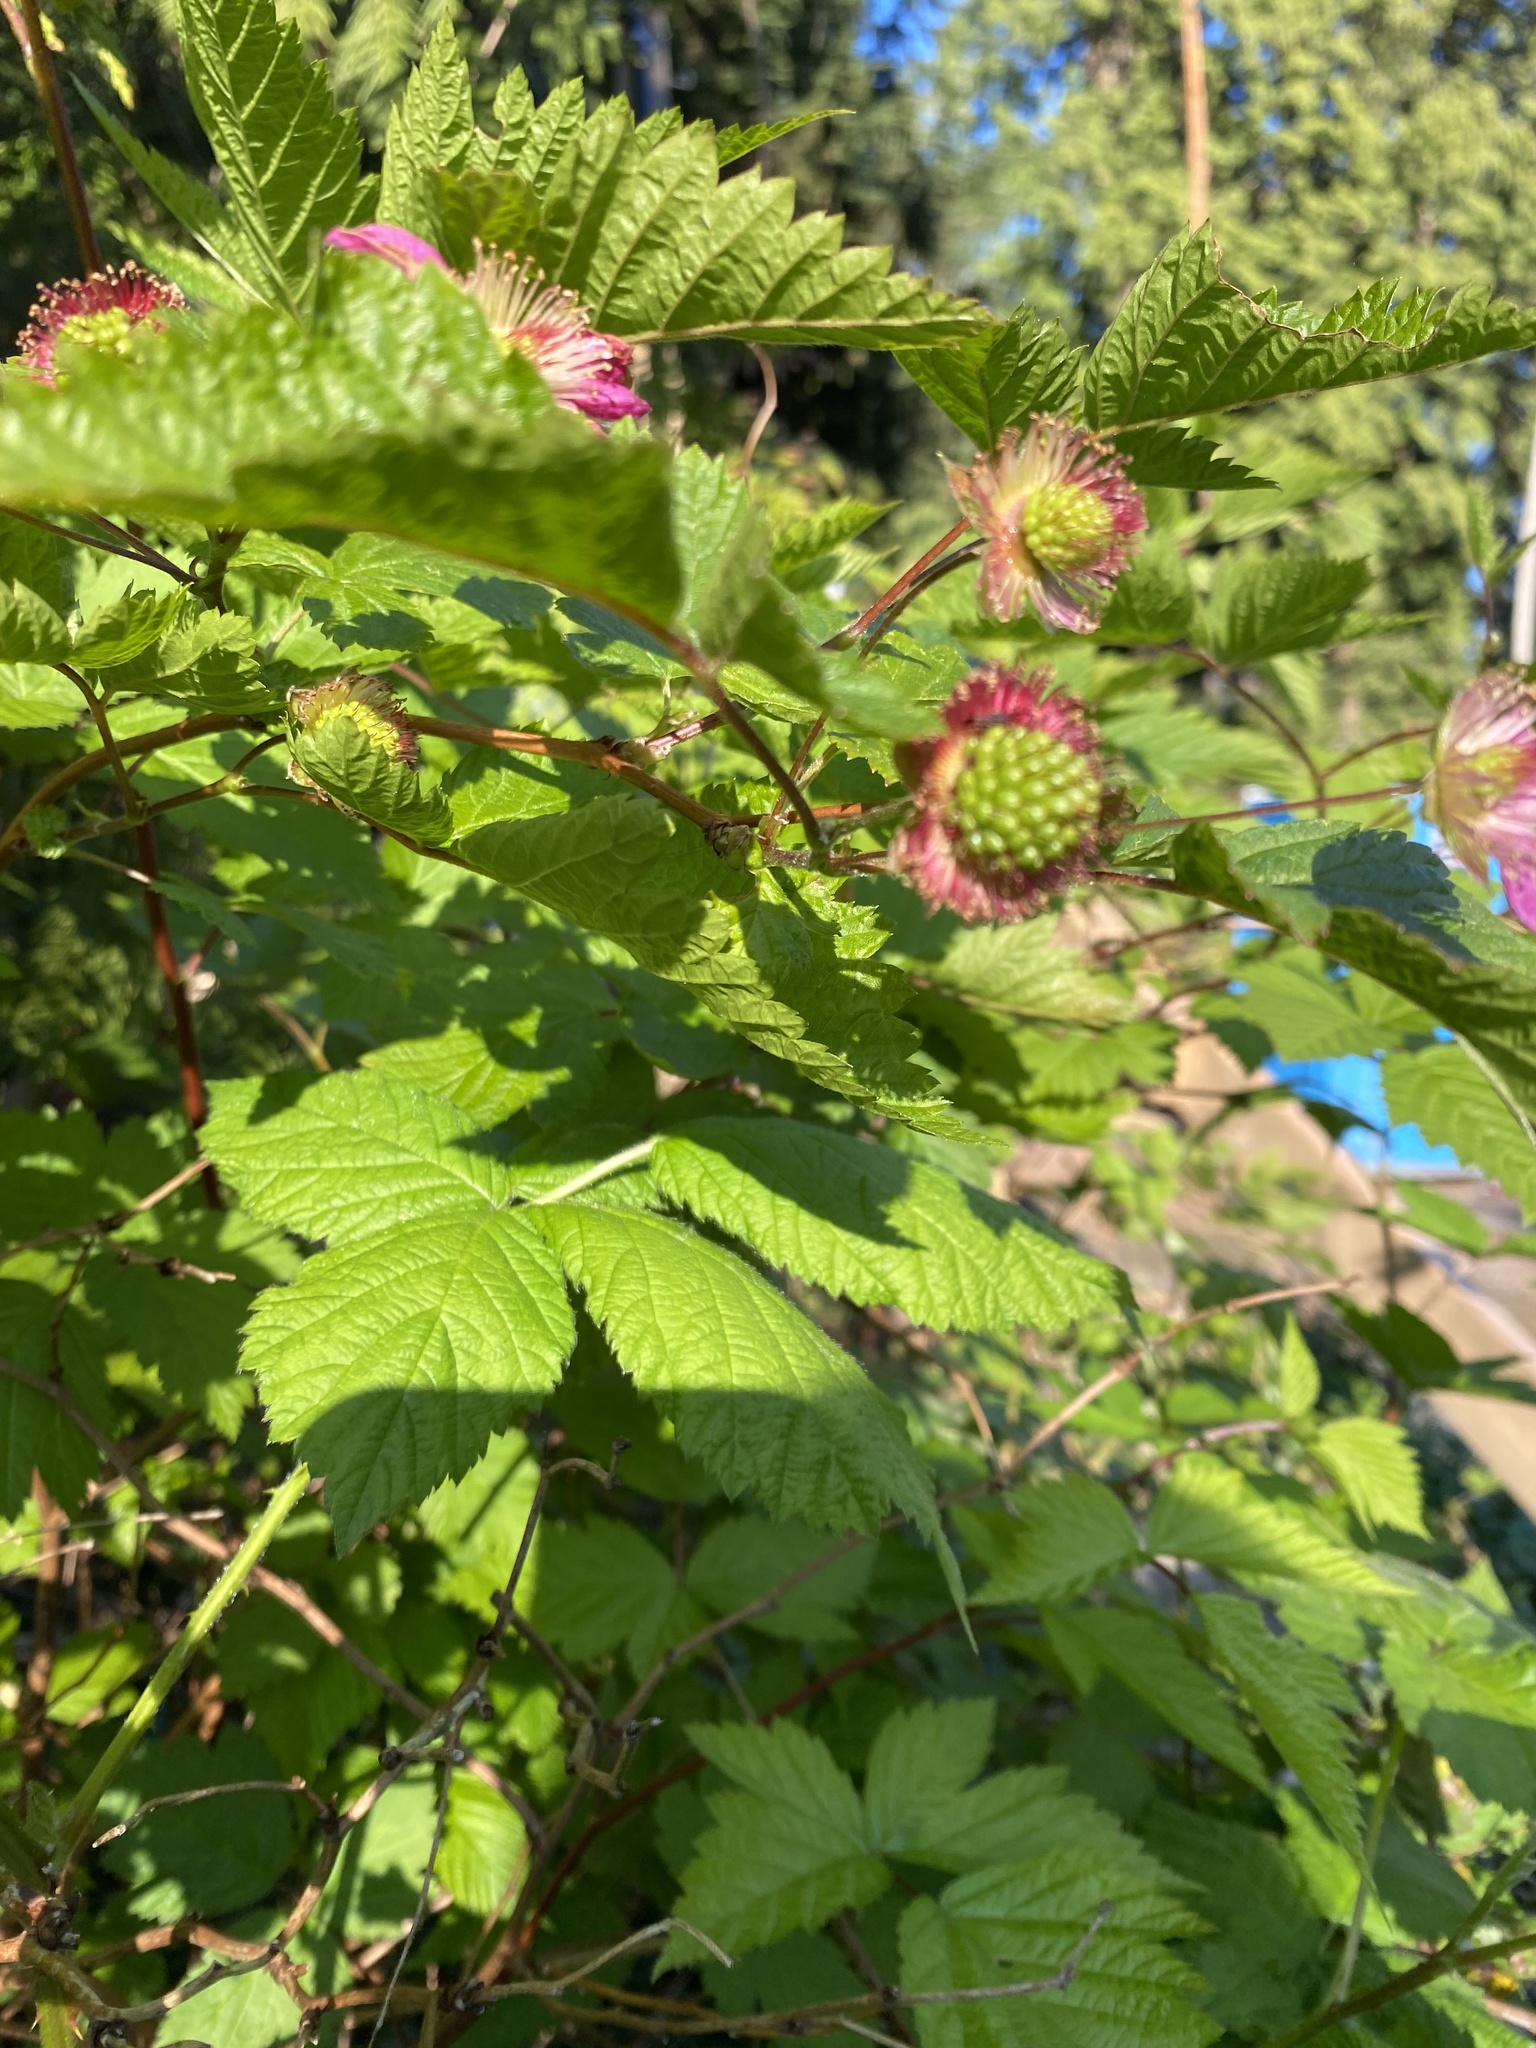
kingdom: Plantae
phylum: Tracheophyta
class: Magnoliopsida
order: Rosales
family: Rosaceae
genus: Rubus
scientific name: Rubus spectabilis
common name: Salmonberry
